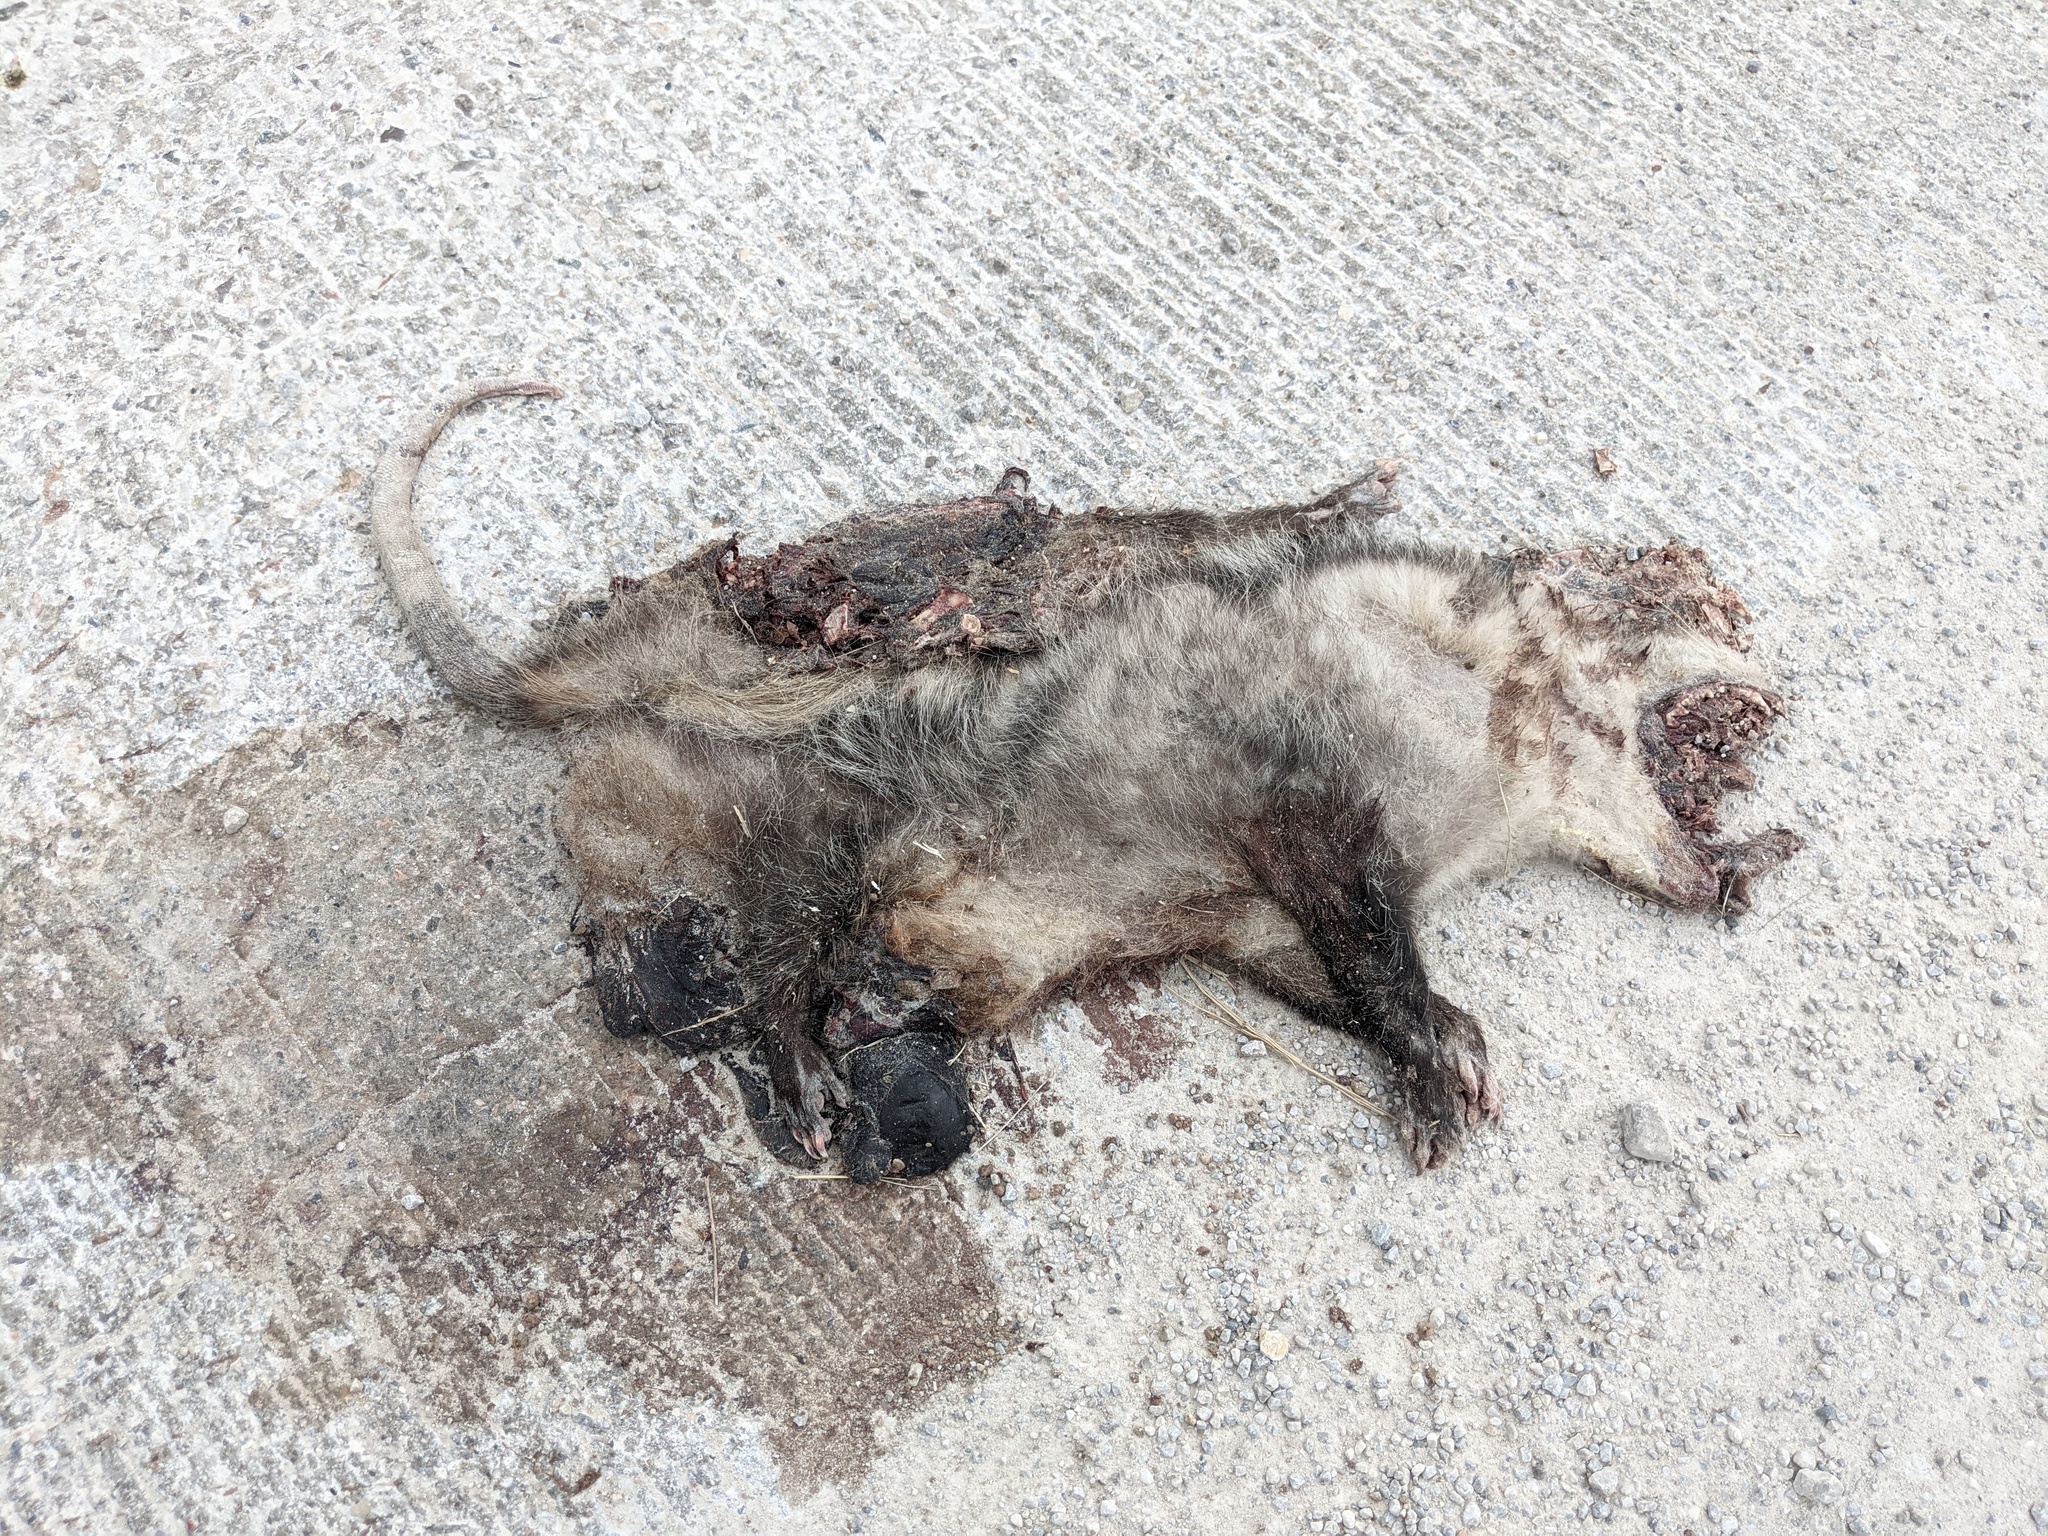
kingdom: Animalia
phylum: Chordata
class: Mammalia
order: Didelphimorphia
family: Didelphidae
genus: Didelphis
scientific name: Didelphis virginiana
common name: Virginia opossum
